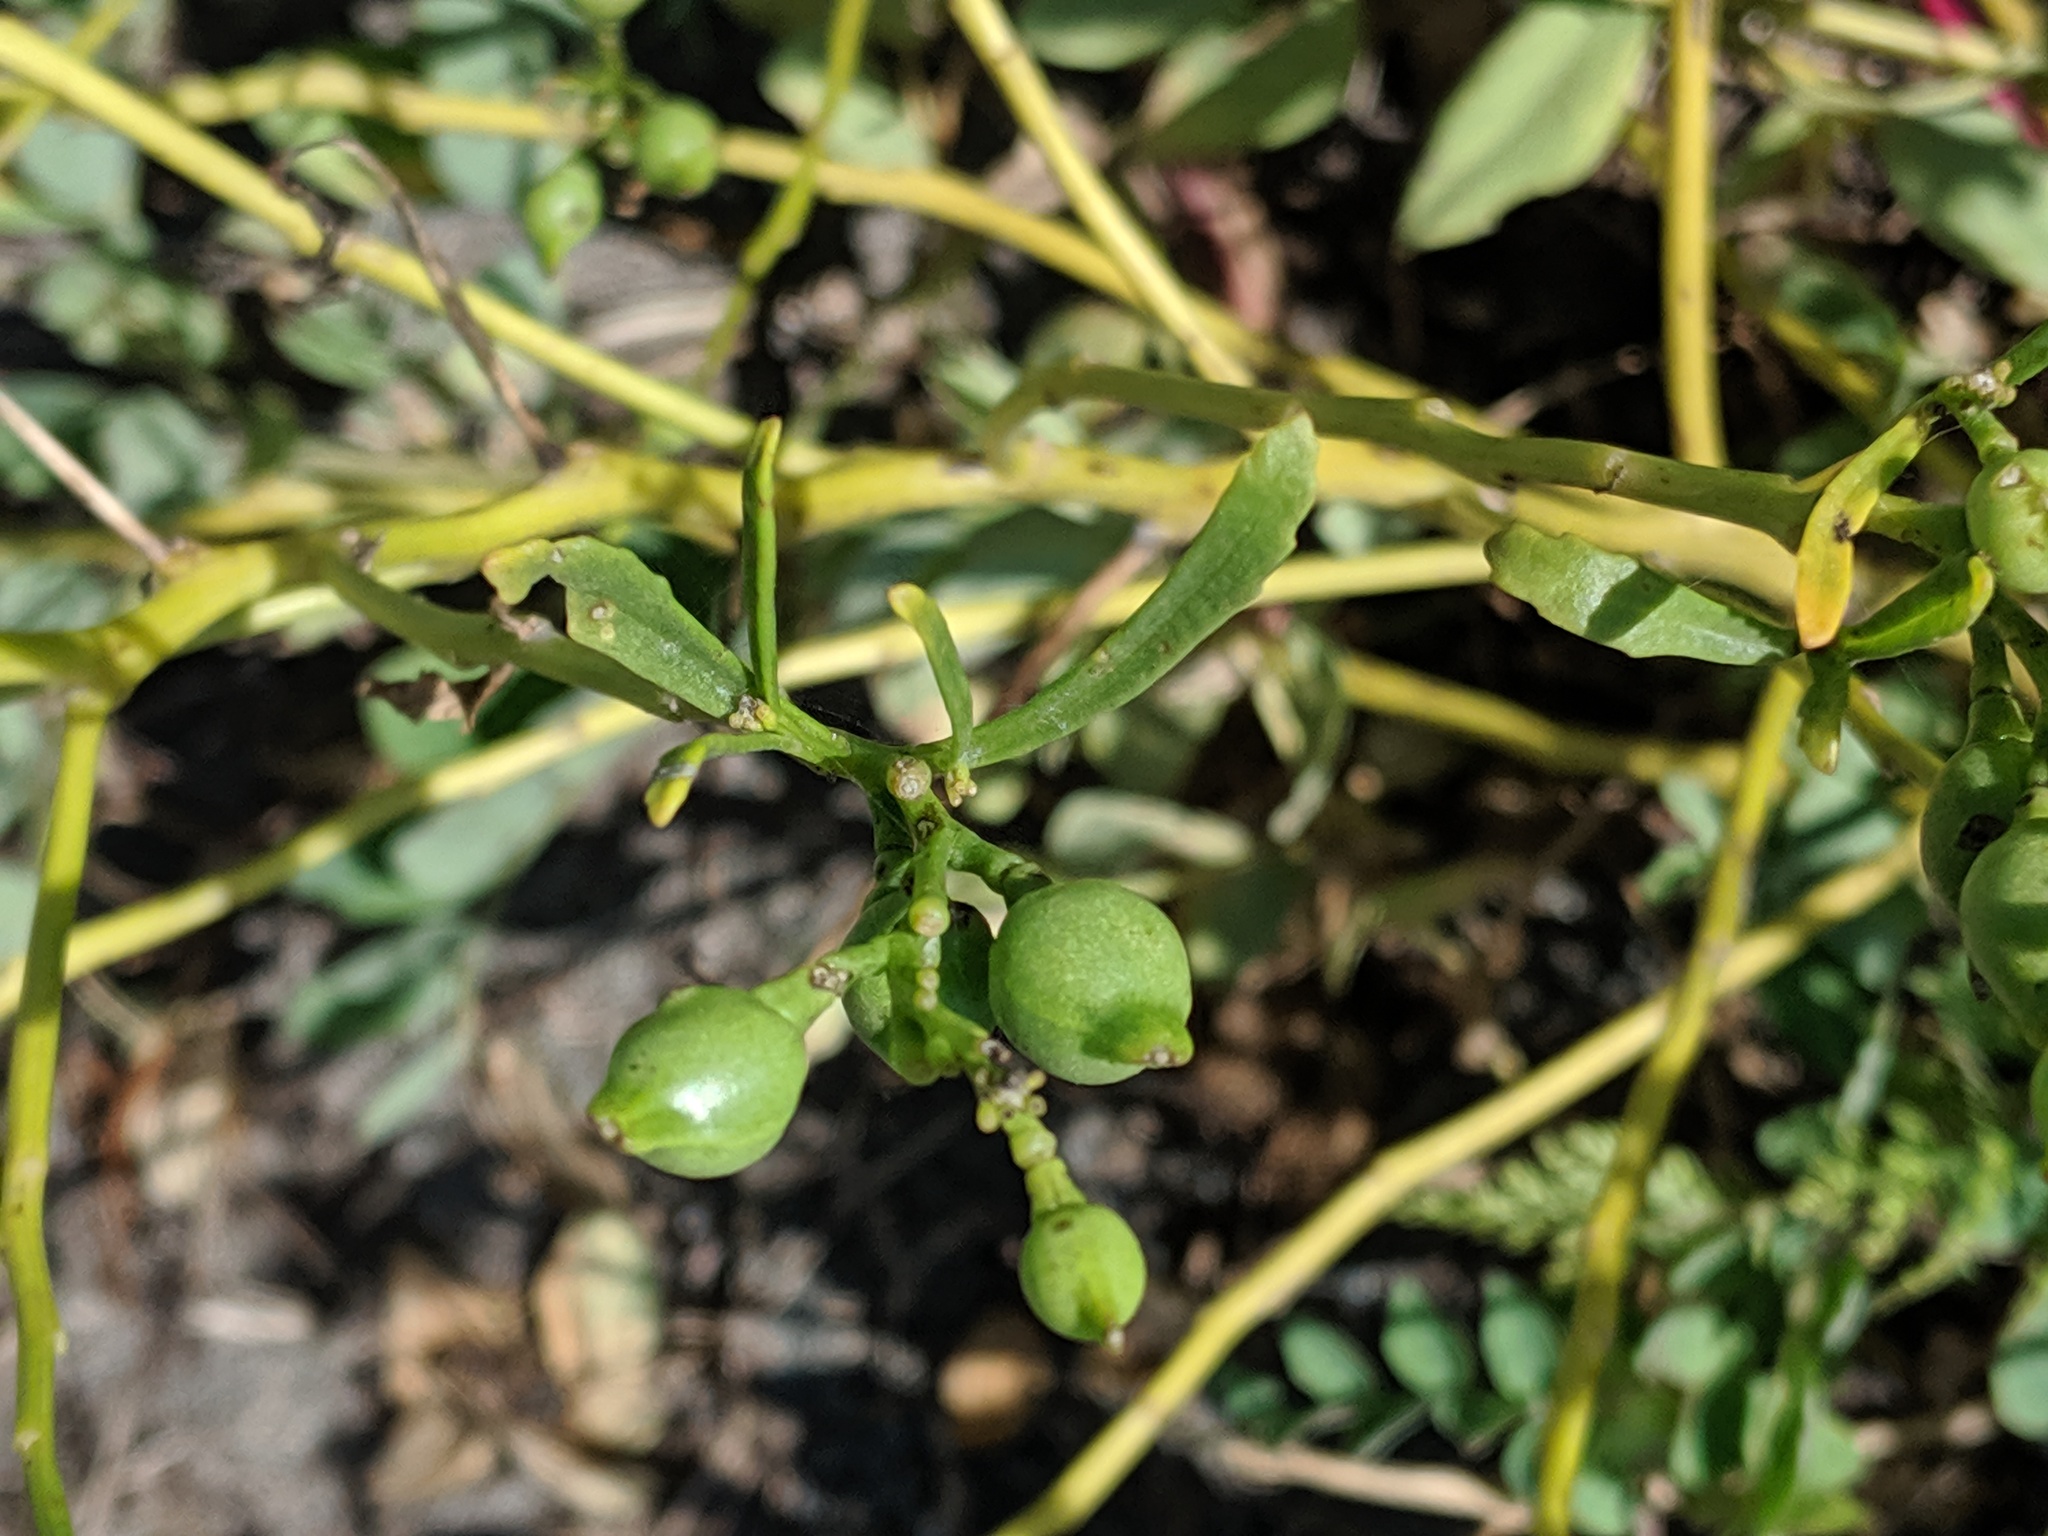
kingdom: Plantae
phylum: Tracheophyta
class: Magnoliopsida
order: Brassicales
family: Brassicaceae
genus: Cakile
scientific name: Cakile edentula
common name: American sea rocket
